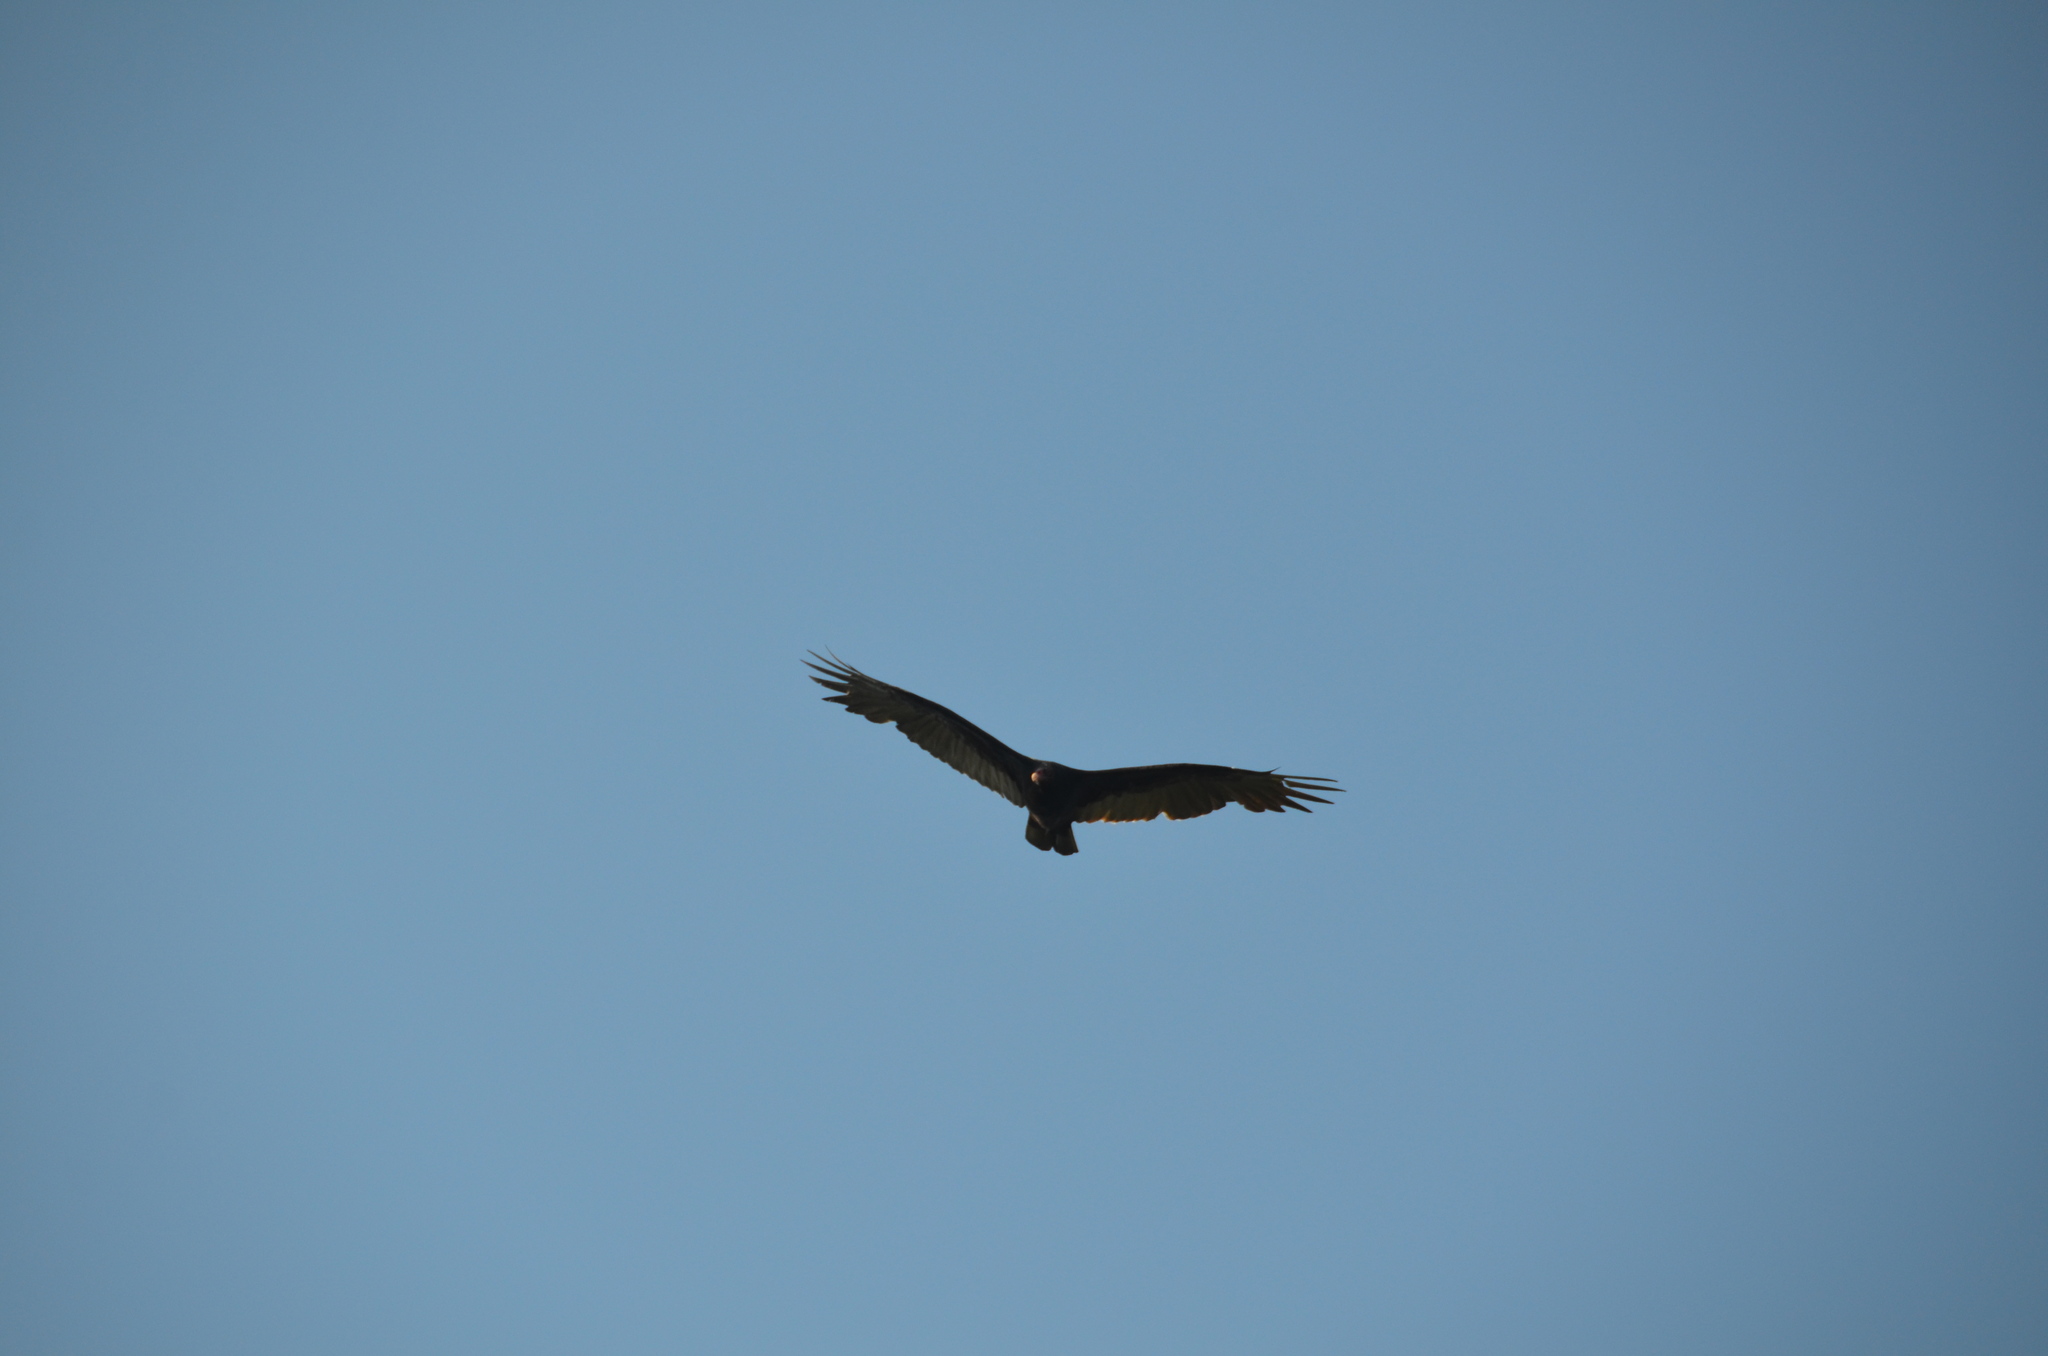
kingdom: Animalia
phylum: Chordata
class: Aves
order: Accipitriformes
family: Cathartidae
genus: Cathartes
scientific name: Cathartes aura
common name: Turkey vulture
